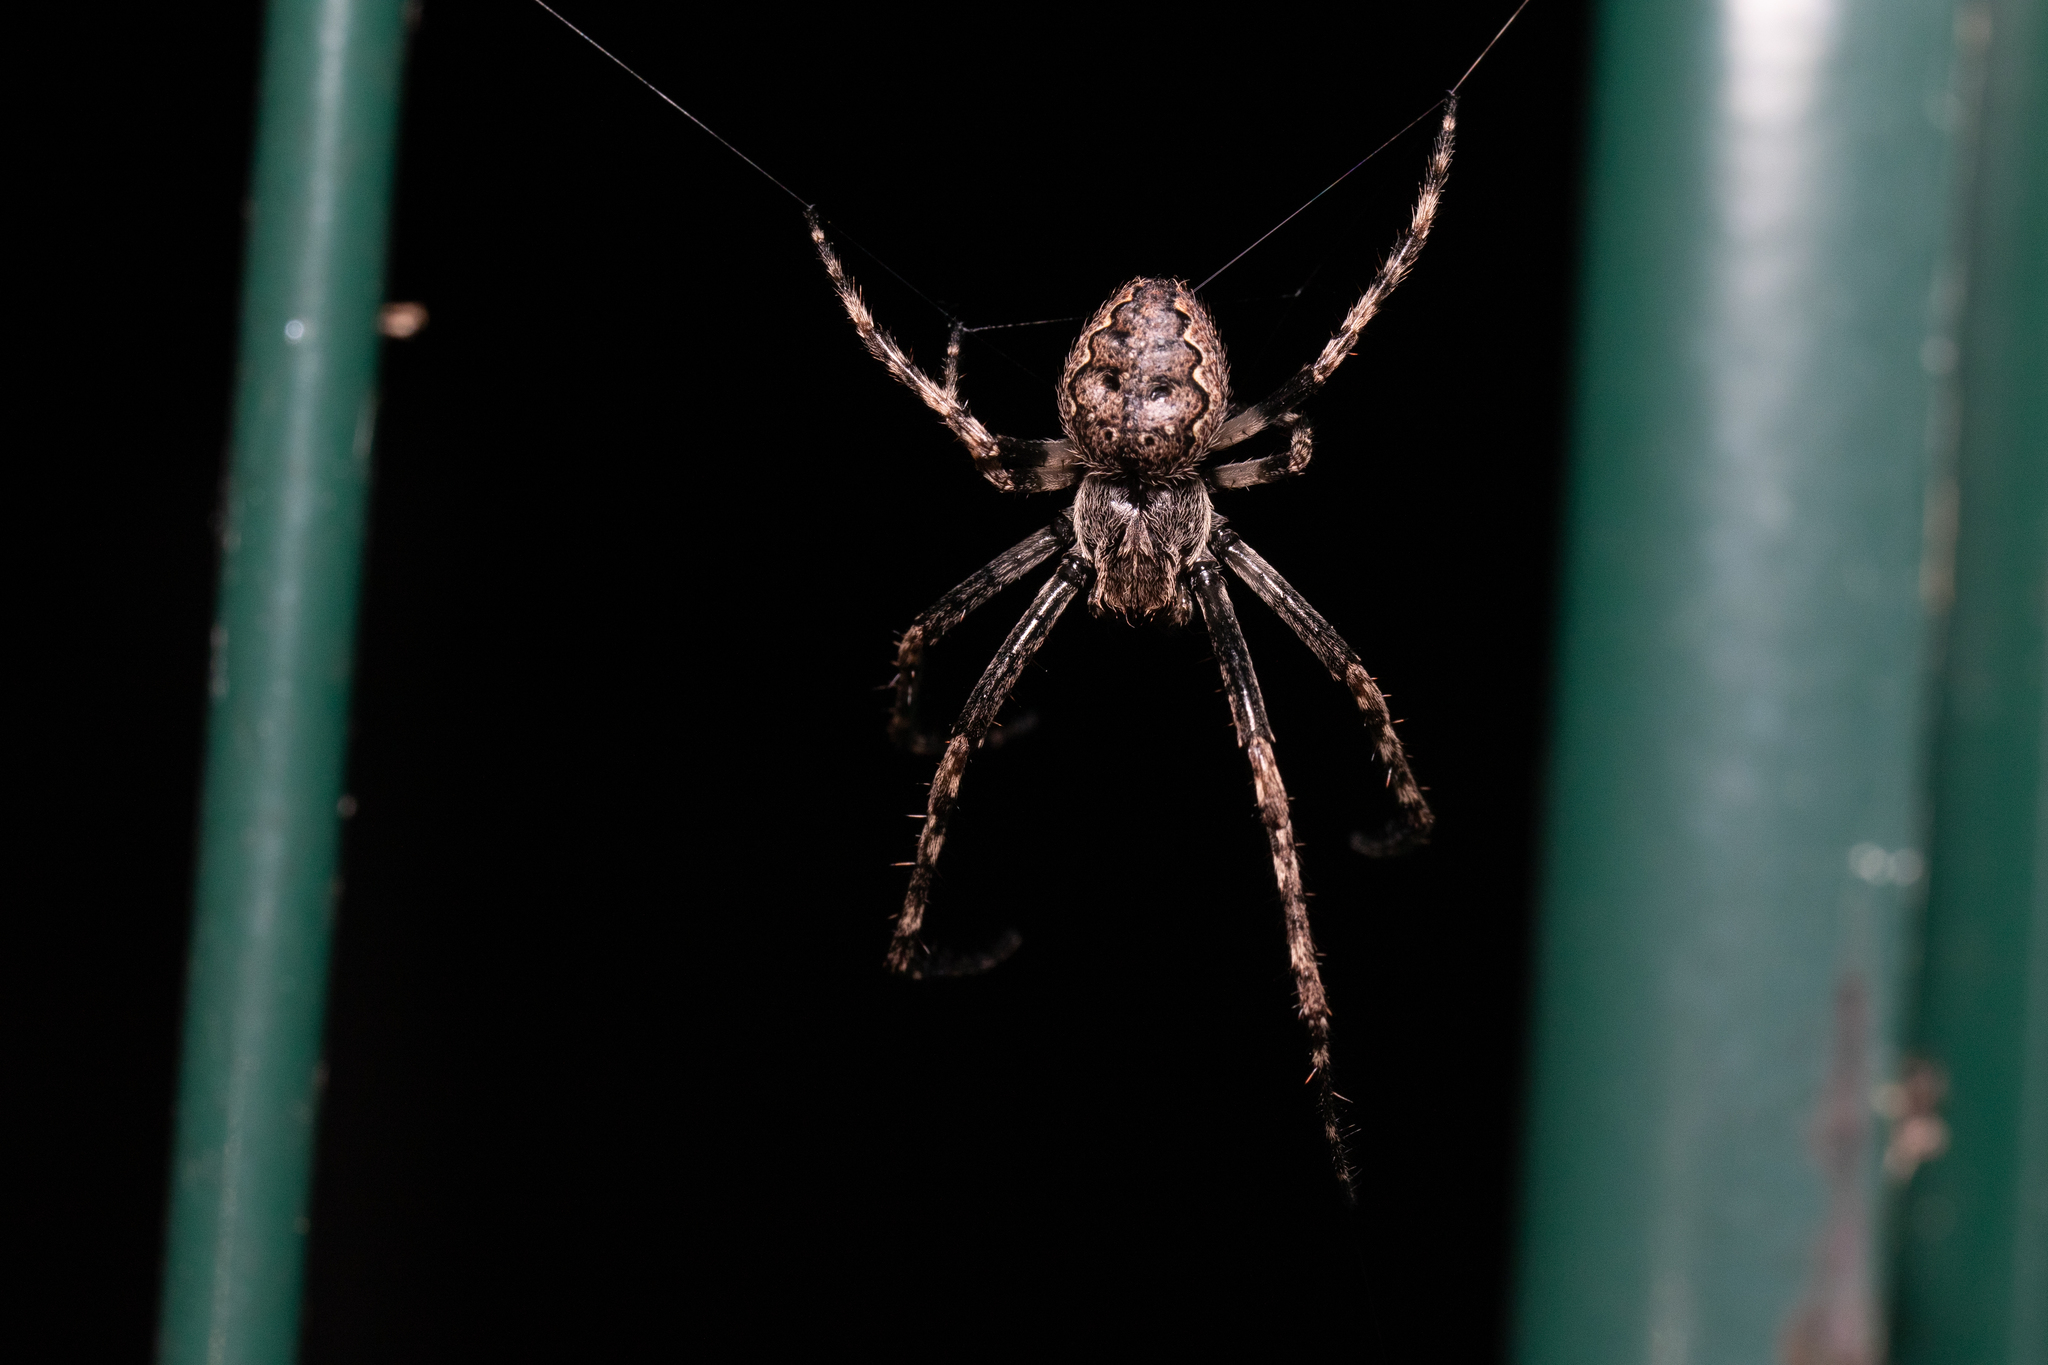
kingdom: Animalia
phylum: Arthropoda
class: Arachnida
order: Araneae
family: Araneidae
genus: Nuctenea
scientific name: Nuctenea umbratica
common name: Toad spider
